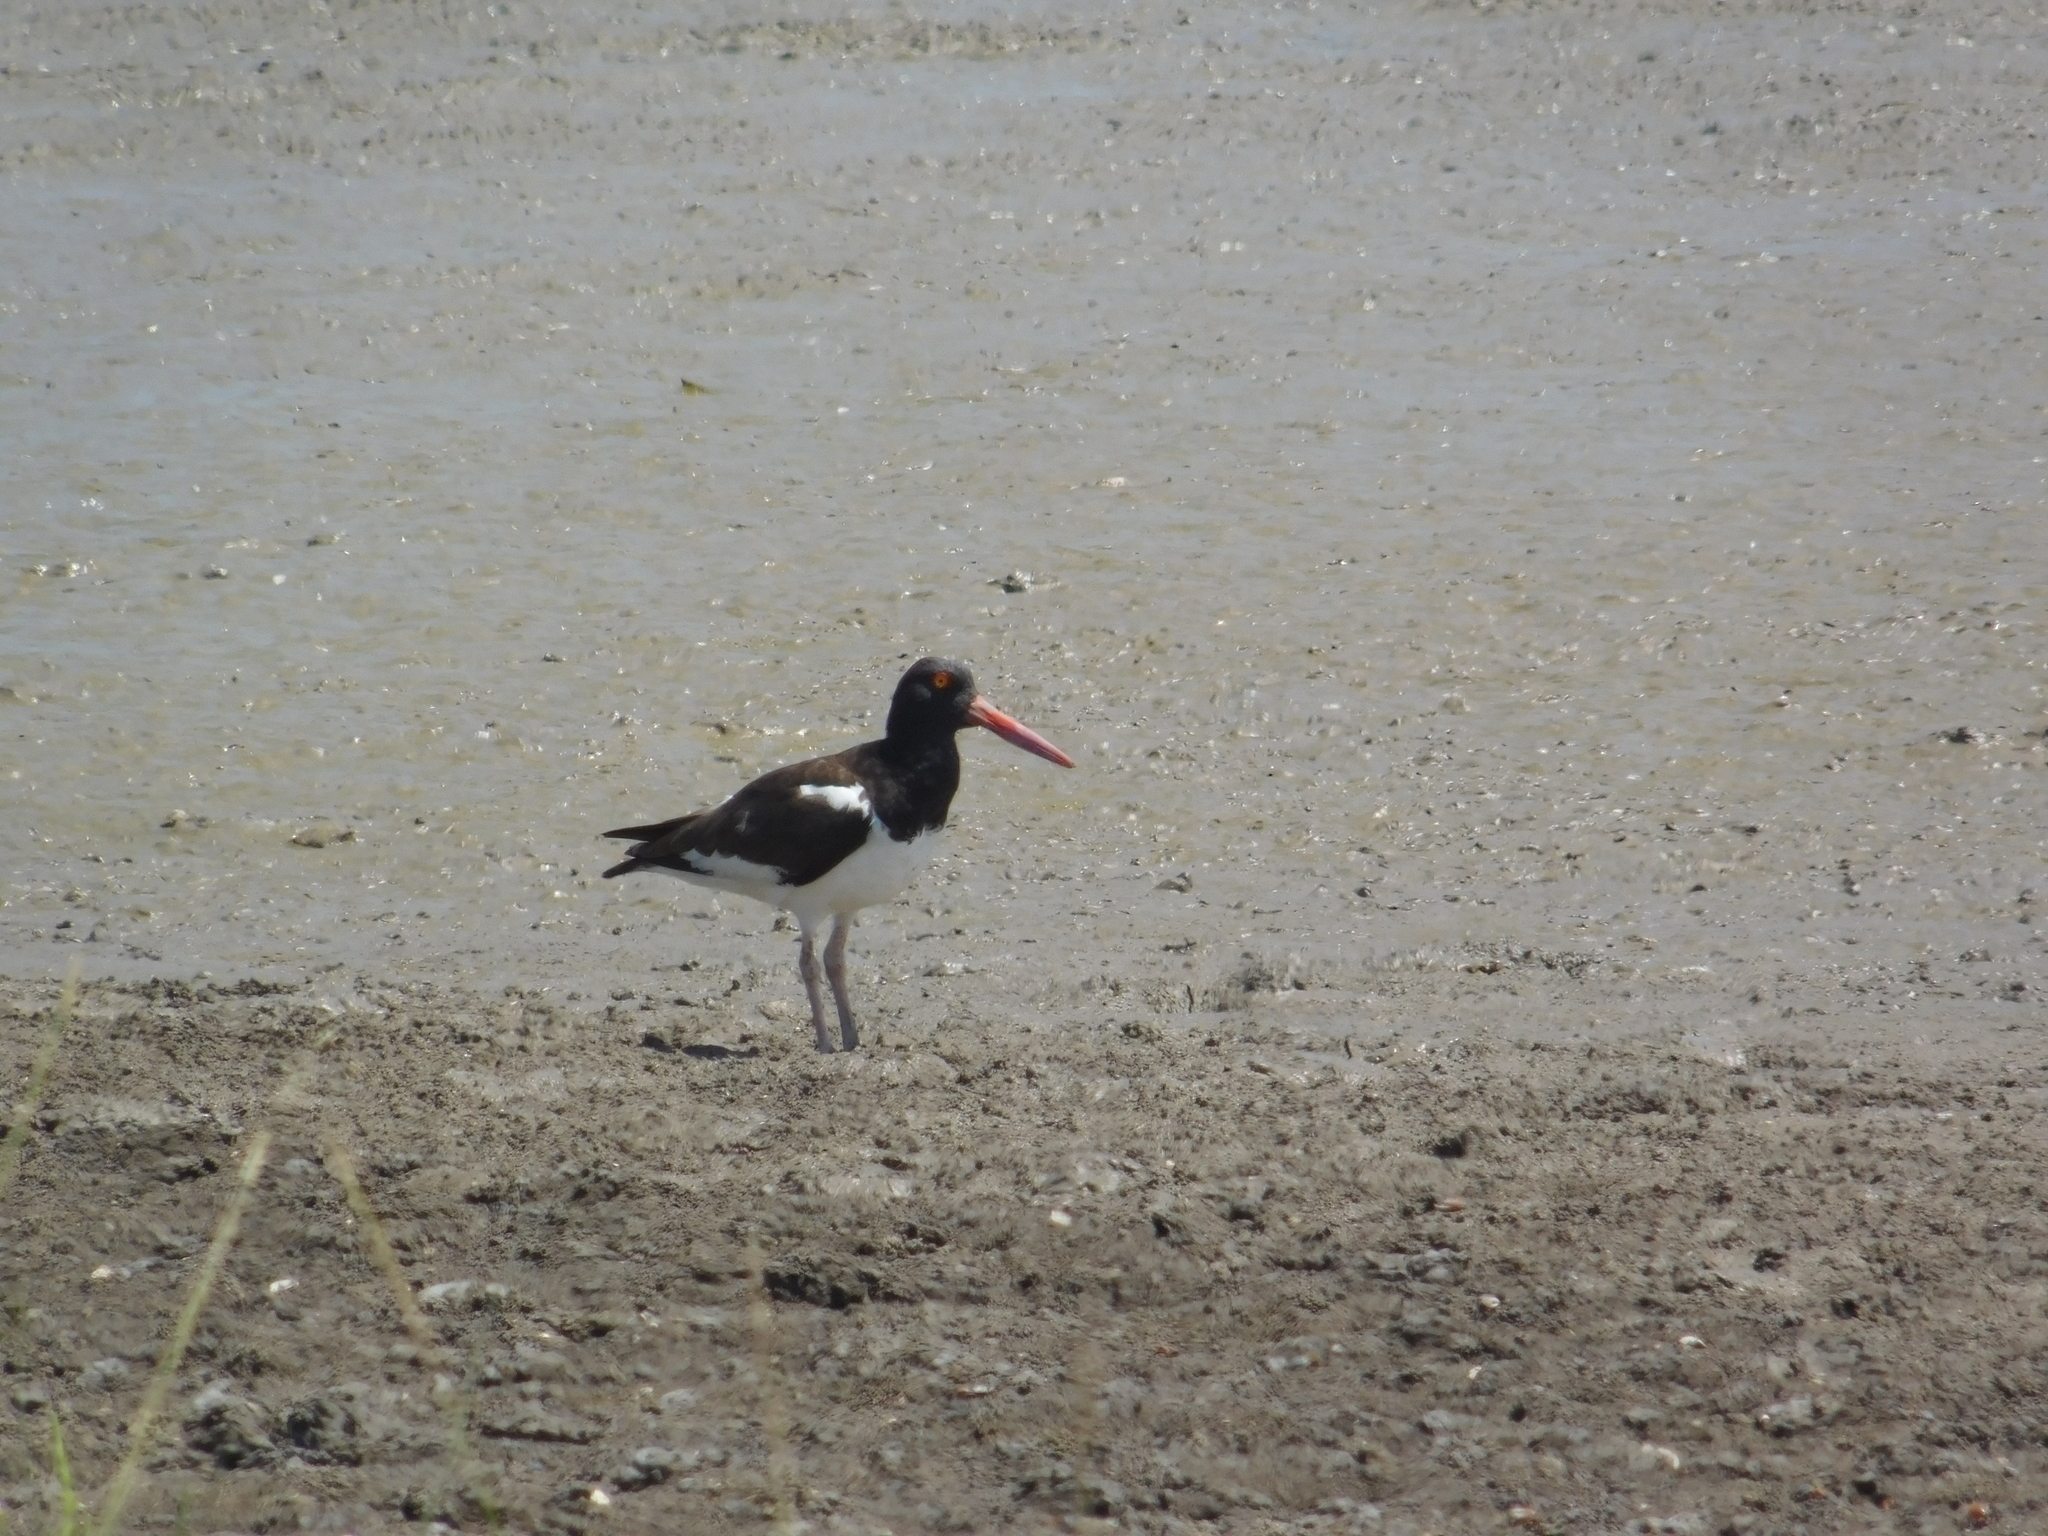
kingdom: Animalia
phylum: Chordata
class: Aves
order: Charadriiformes
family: Haematopodidae
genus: Haematopus
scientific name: Haematopus palliatus
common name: American oystercatcher
